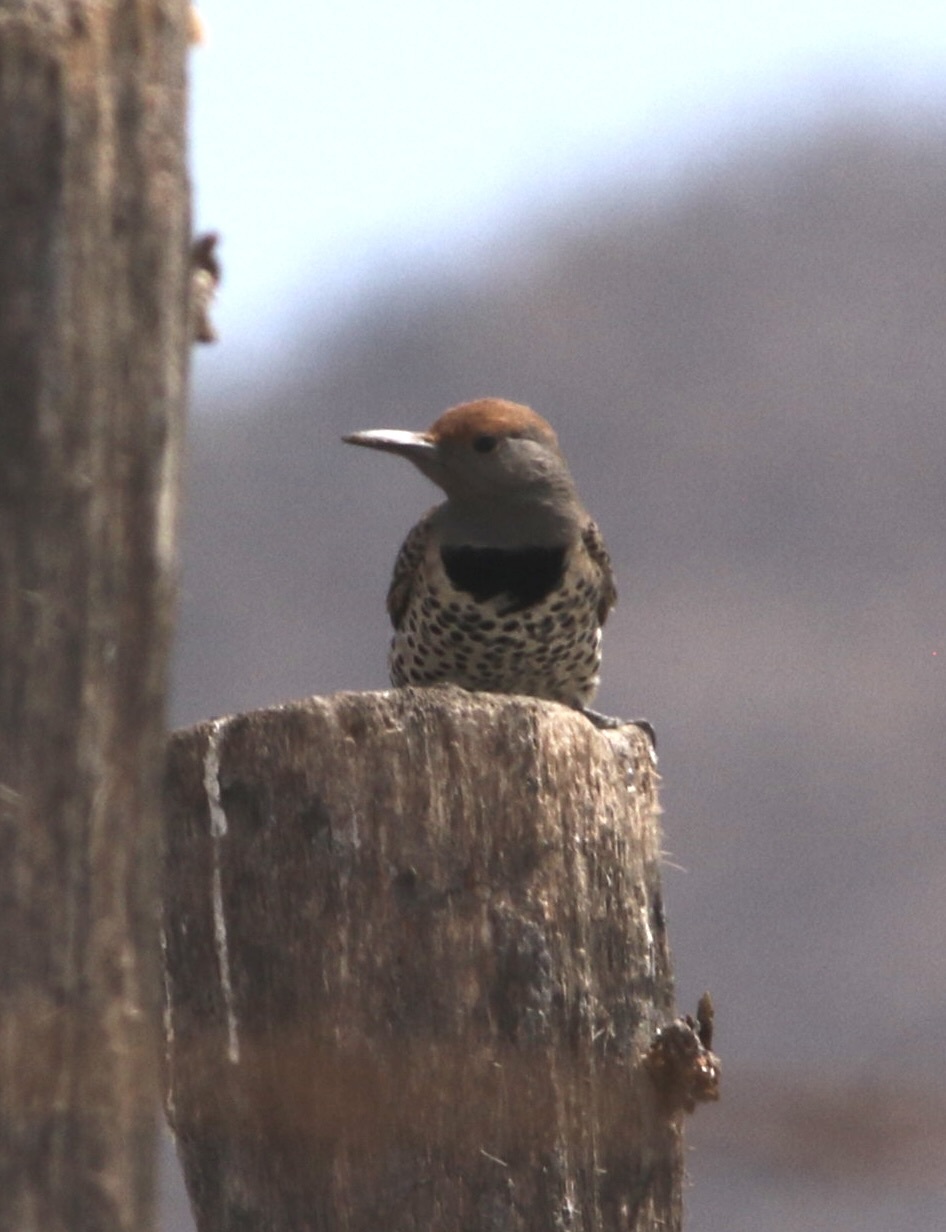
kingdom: Animalia
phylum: Chordata
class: Aves
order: Piciformes
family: Picidae
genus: Colaptes
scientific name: Colaptes chrysoides
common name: Gilded flicker
